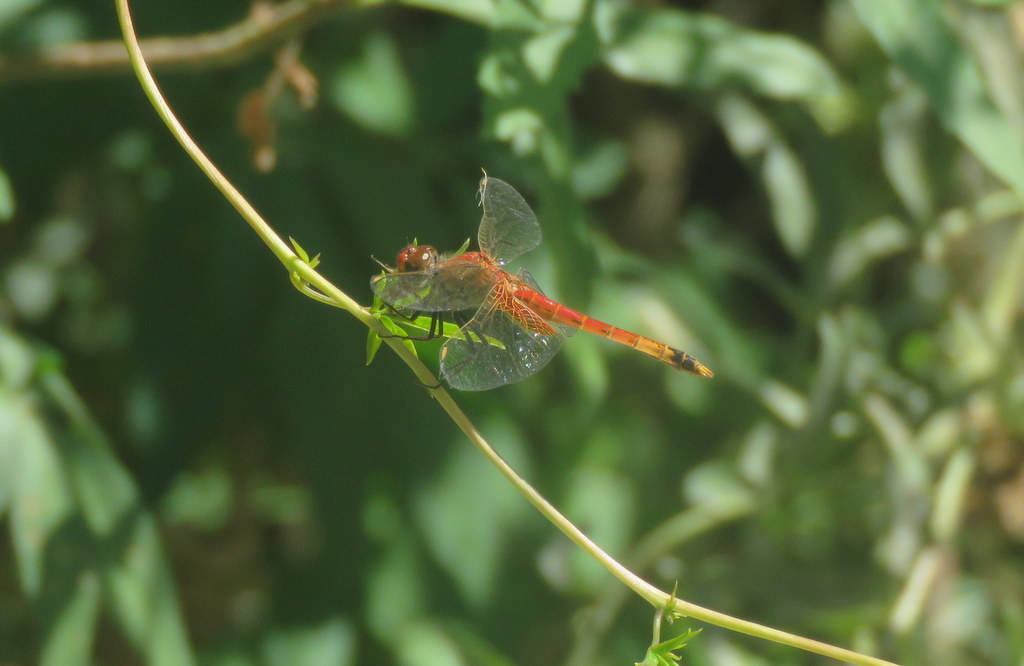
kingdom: Animalia
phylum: Arthropoda
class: Insecta
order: Odonata
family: Libellulidae
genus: Erythrodiplax
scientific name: Erythrodiplax corallina
